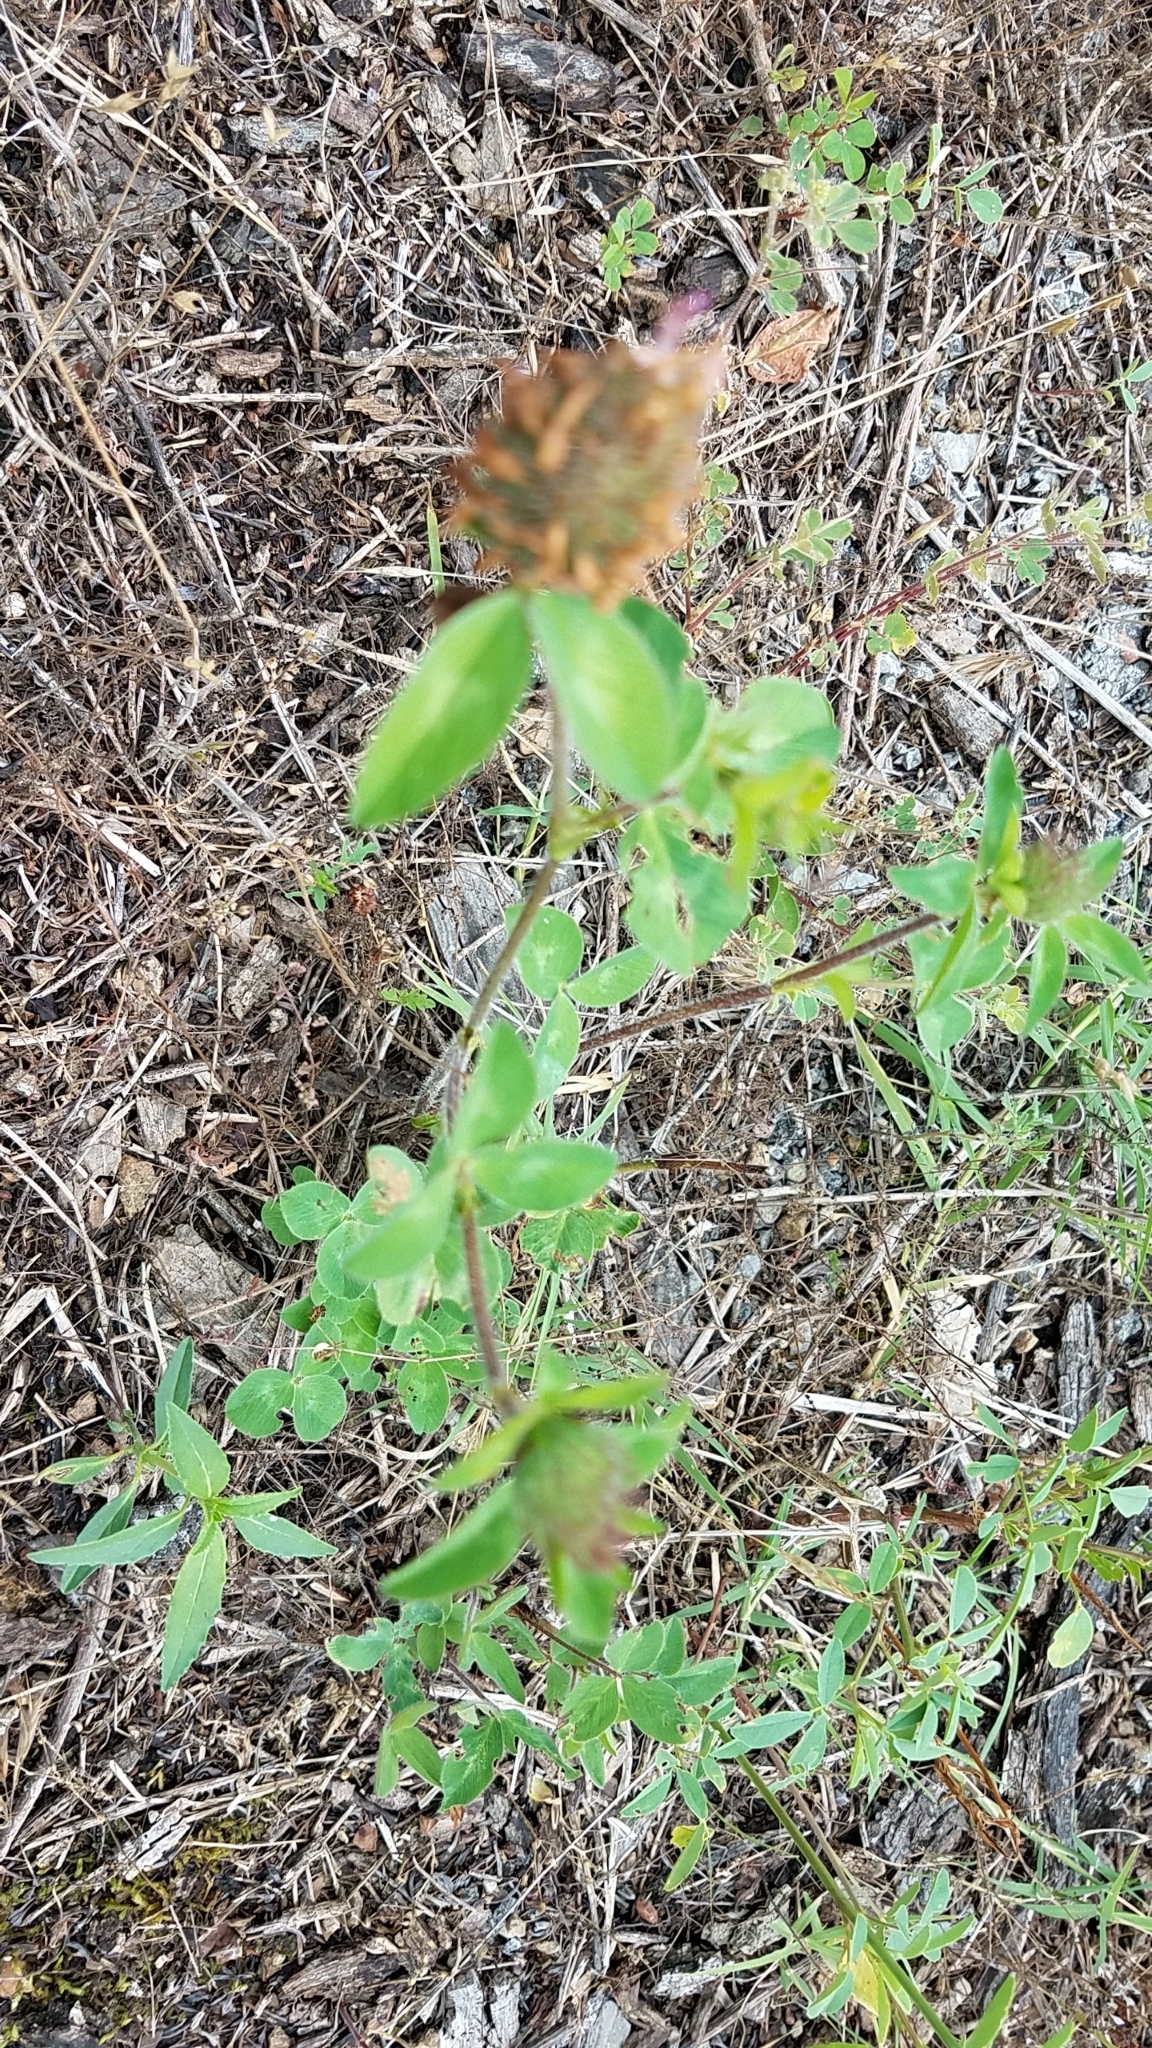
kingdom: Plantae
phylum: Tracheophyta
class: Magnoliopsida
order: Fabales
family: Fabaceae
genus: Trifolium
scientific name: Trifolium pratense
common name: Red clover
